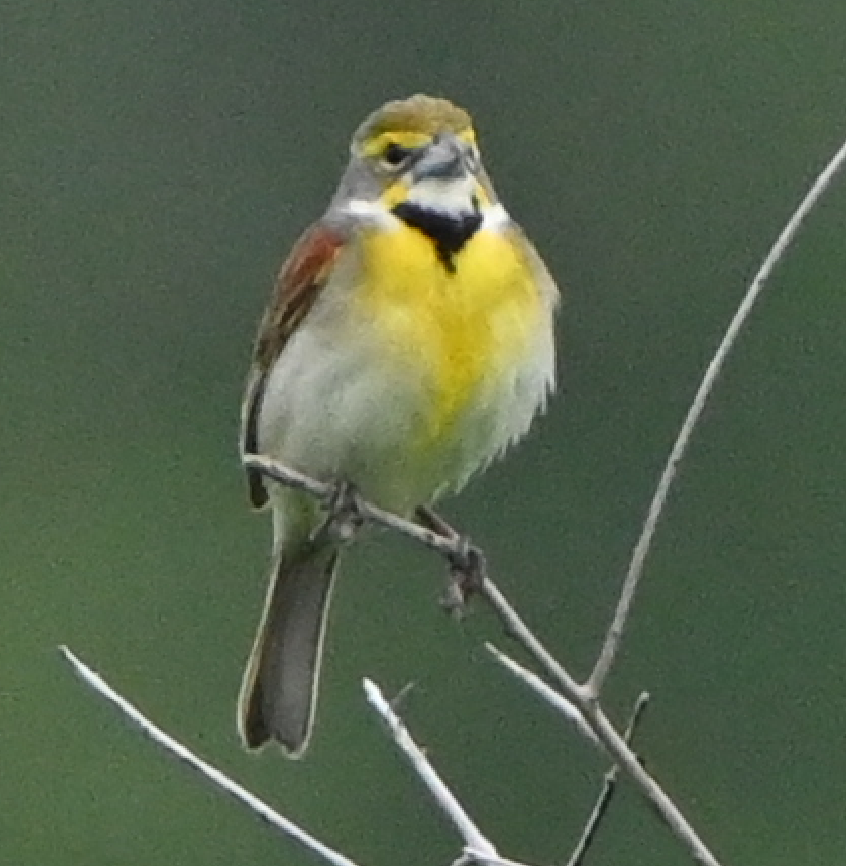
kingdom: Animalia
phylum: Chordata
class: Aves
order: Passeriformes
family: Cardinalidae
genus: Spiza
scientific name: Spiza americana
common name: Dickcissel
